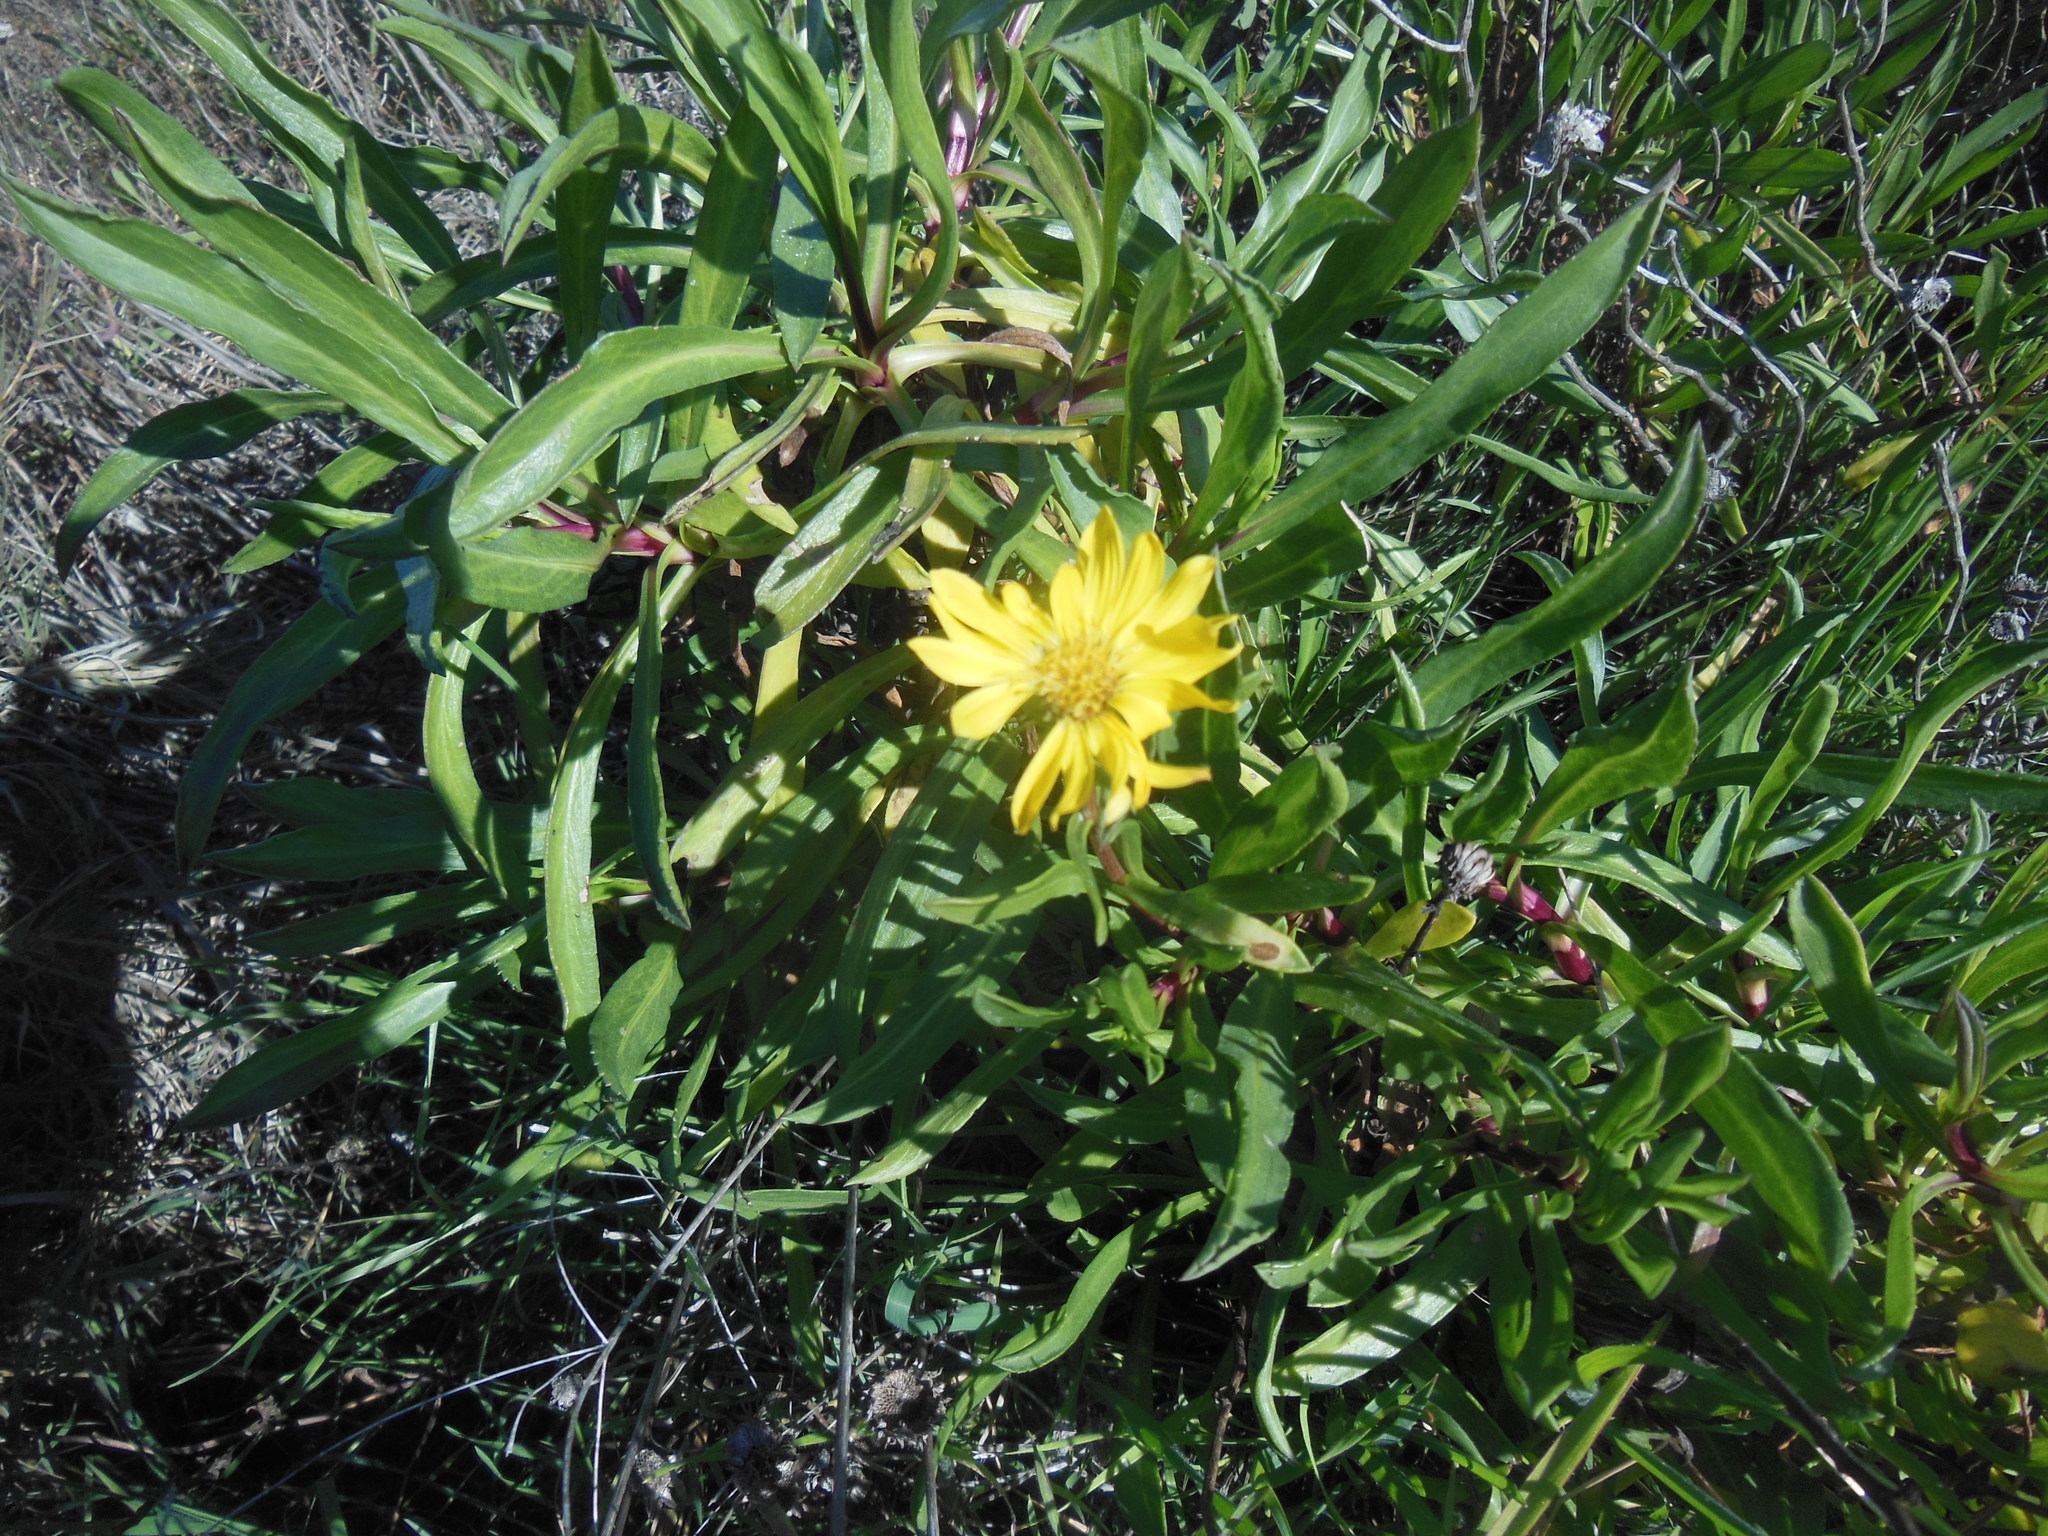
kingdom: Plantae
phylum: Tracheophyta
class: Magnoliopsida
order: Asterales
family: Asteraceae
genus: Grindelia
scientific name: Grindelia hirsutula
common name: Hairy gumweed
